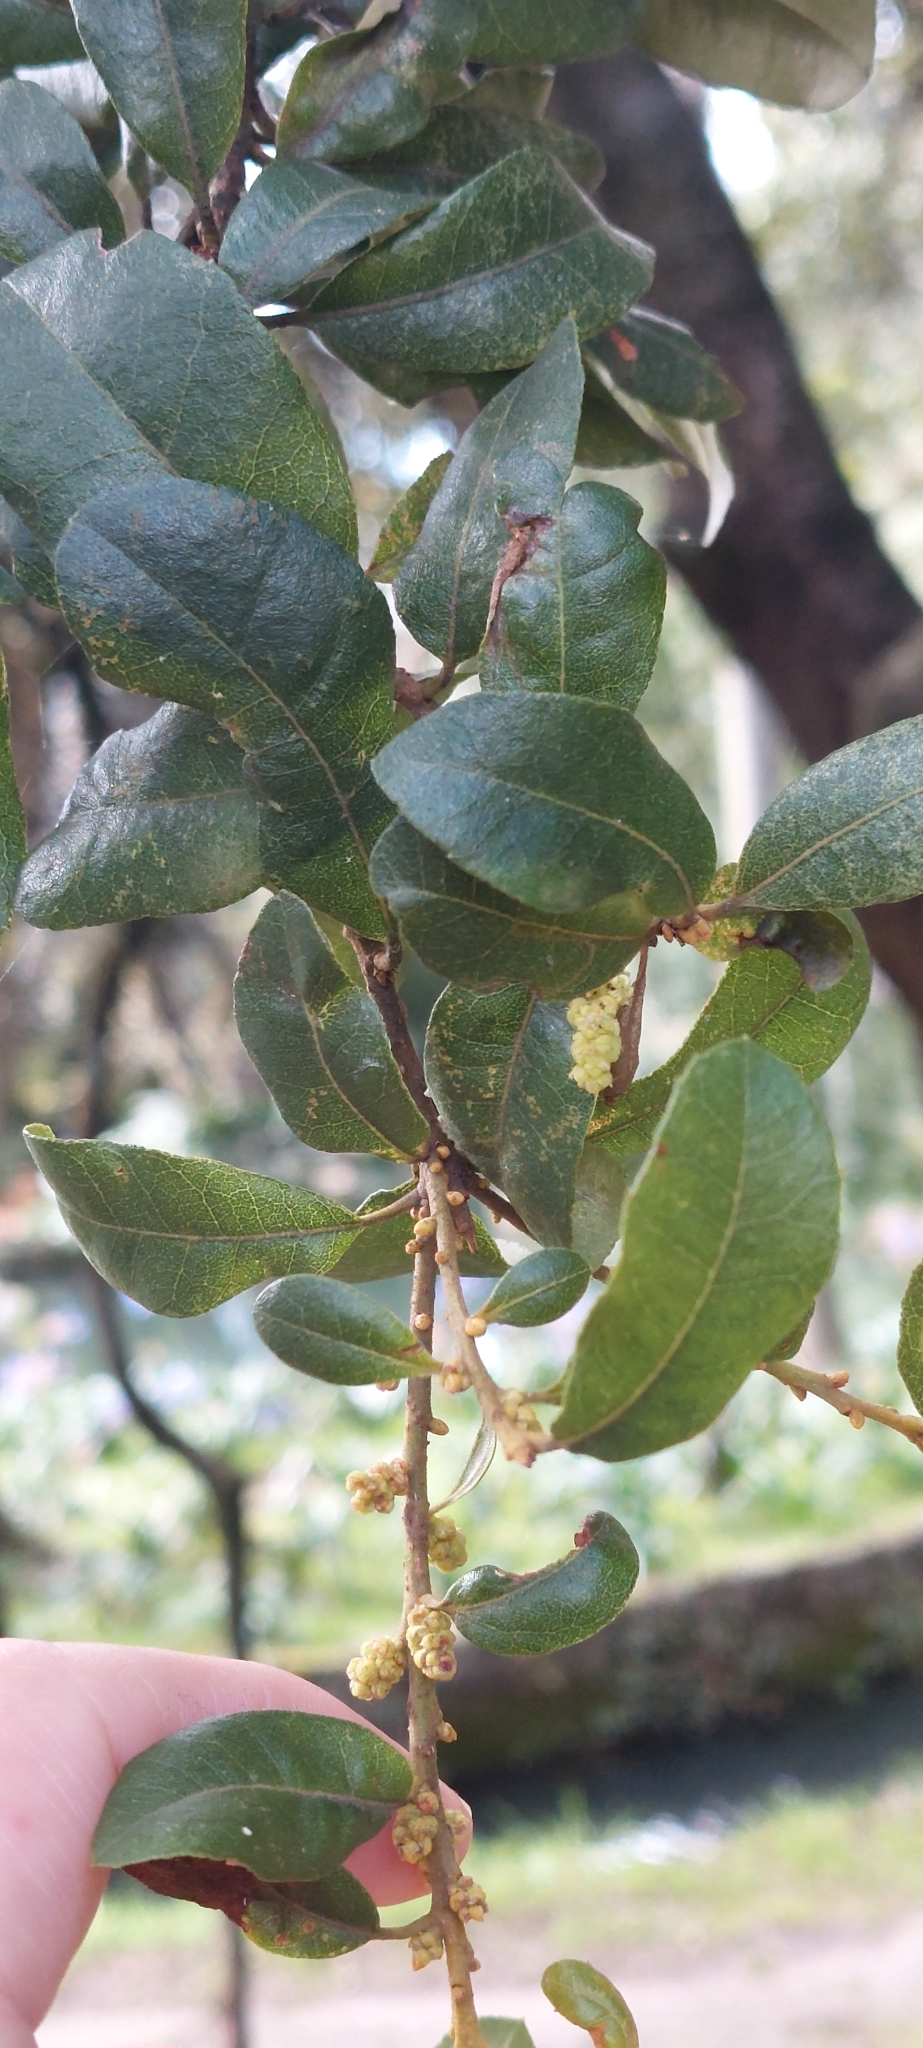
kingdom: Plantae
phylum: Tracheophyta
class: Magnoliopsida
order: Fagales
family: Myricaceae
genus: Morella
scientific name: Morella parvifolia
